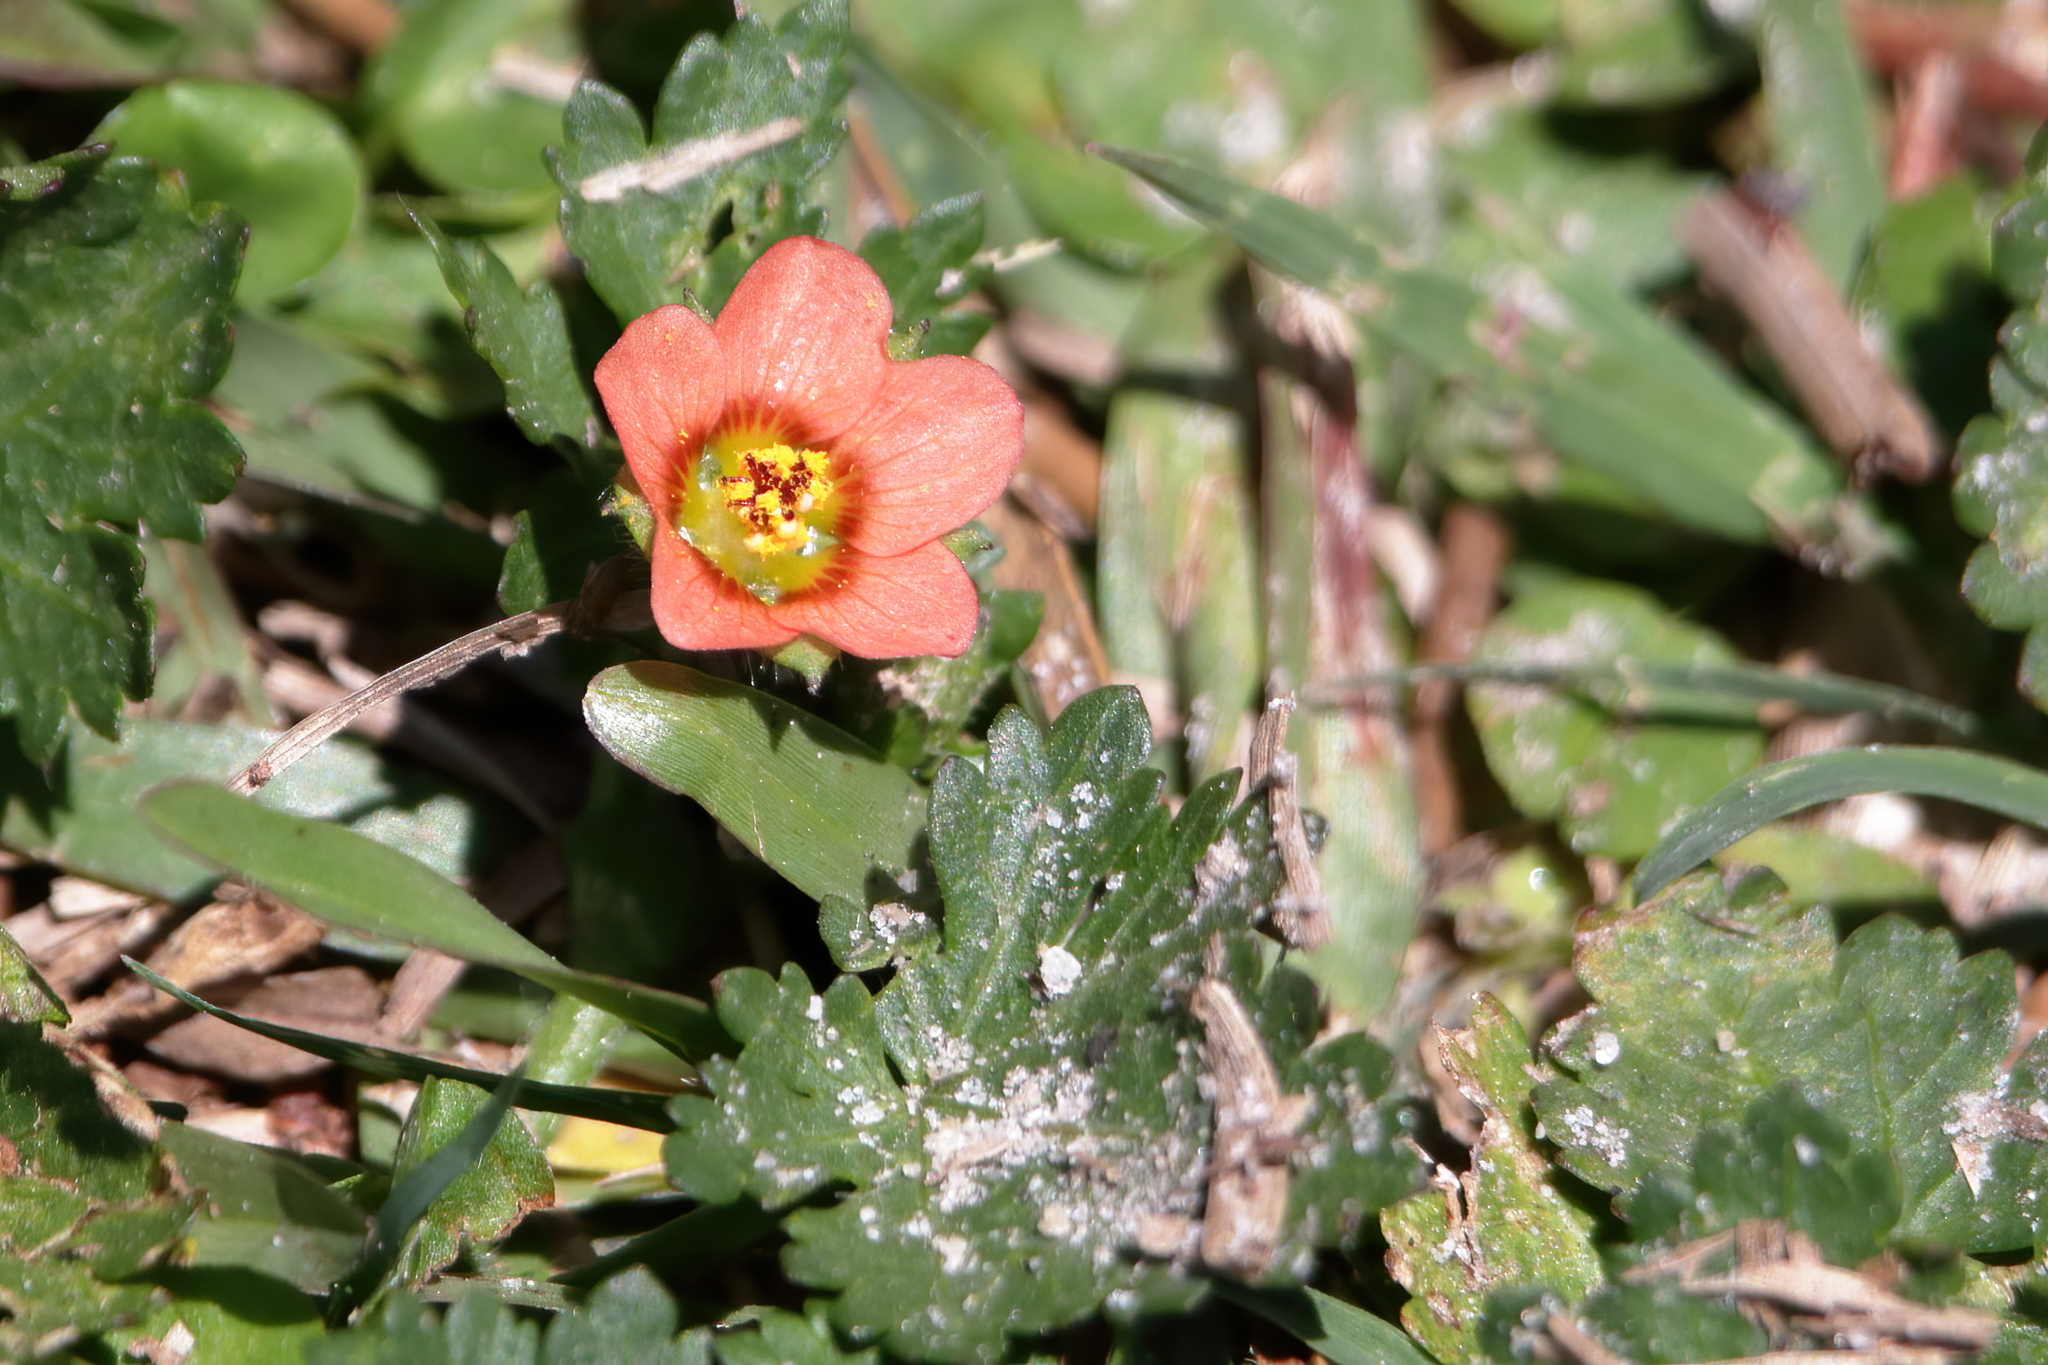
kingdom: Plantae
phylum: Tracheophyta
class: Magnoliopsida
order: Malvales
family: Malvaceae
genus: Modiola
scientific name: Modiola caroliniana
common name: Carolina bristlemallow
